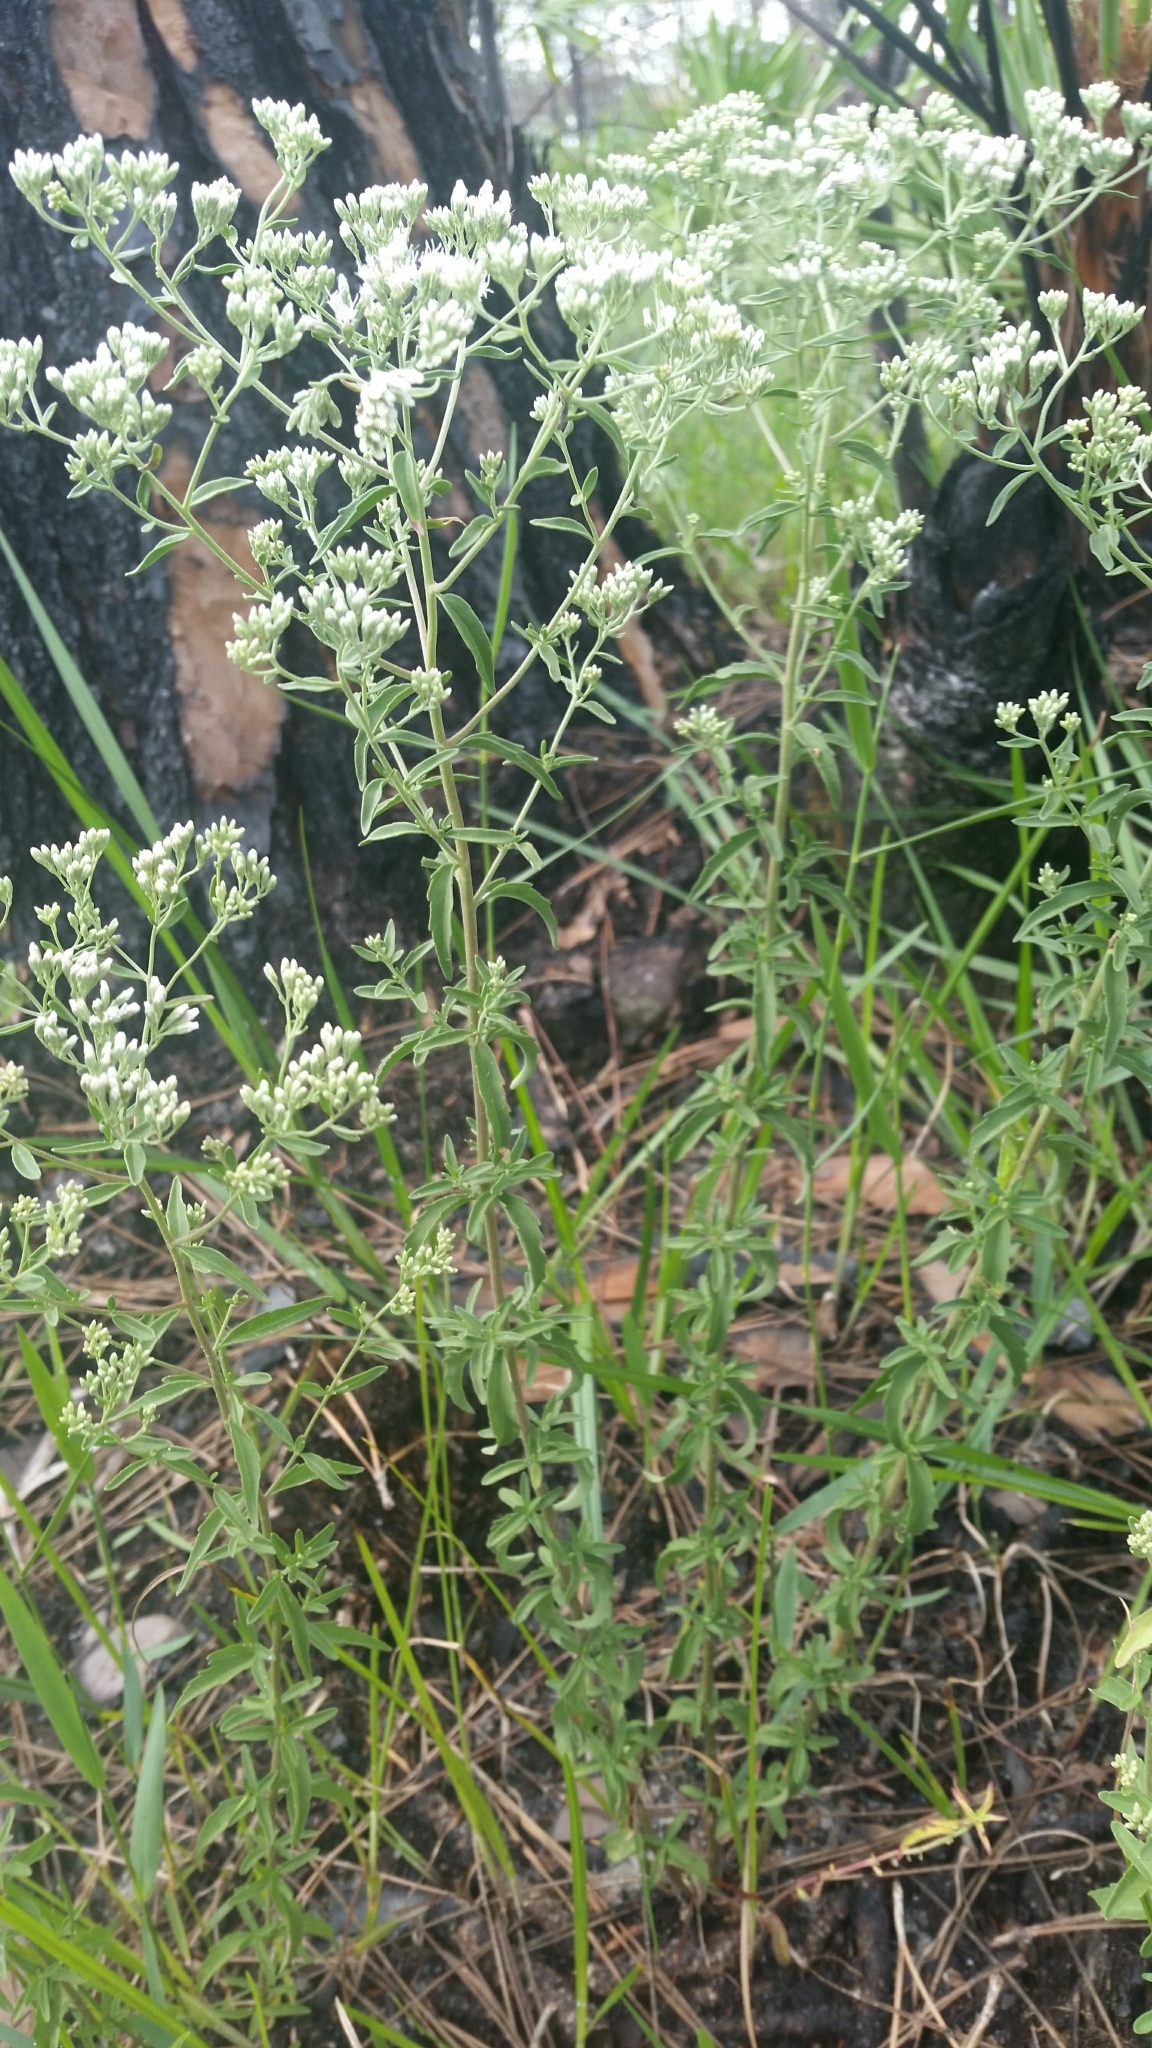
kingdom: Plantae
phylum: Tracheophyta
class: Magnoliopsida
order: Asterales
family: Asteraceae
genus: Eupatorium
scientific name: Eupatorium mohrii
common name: Mohr's thoroughwort
